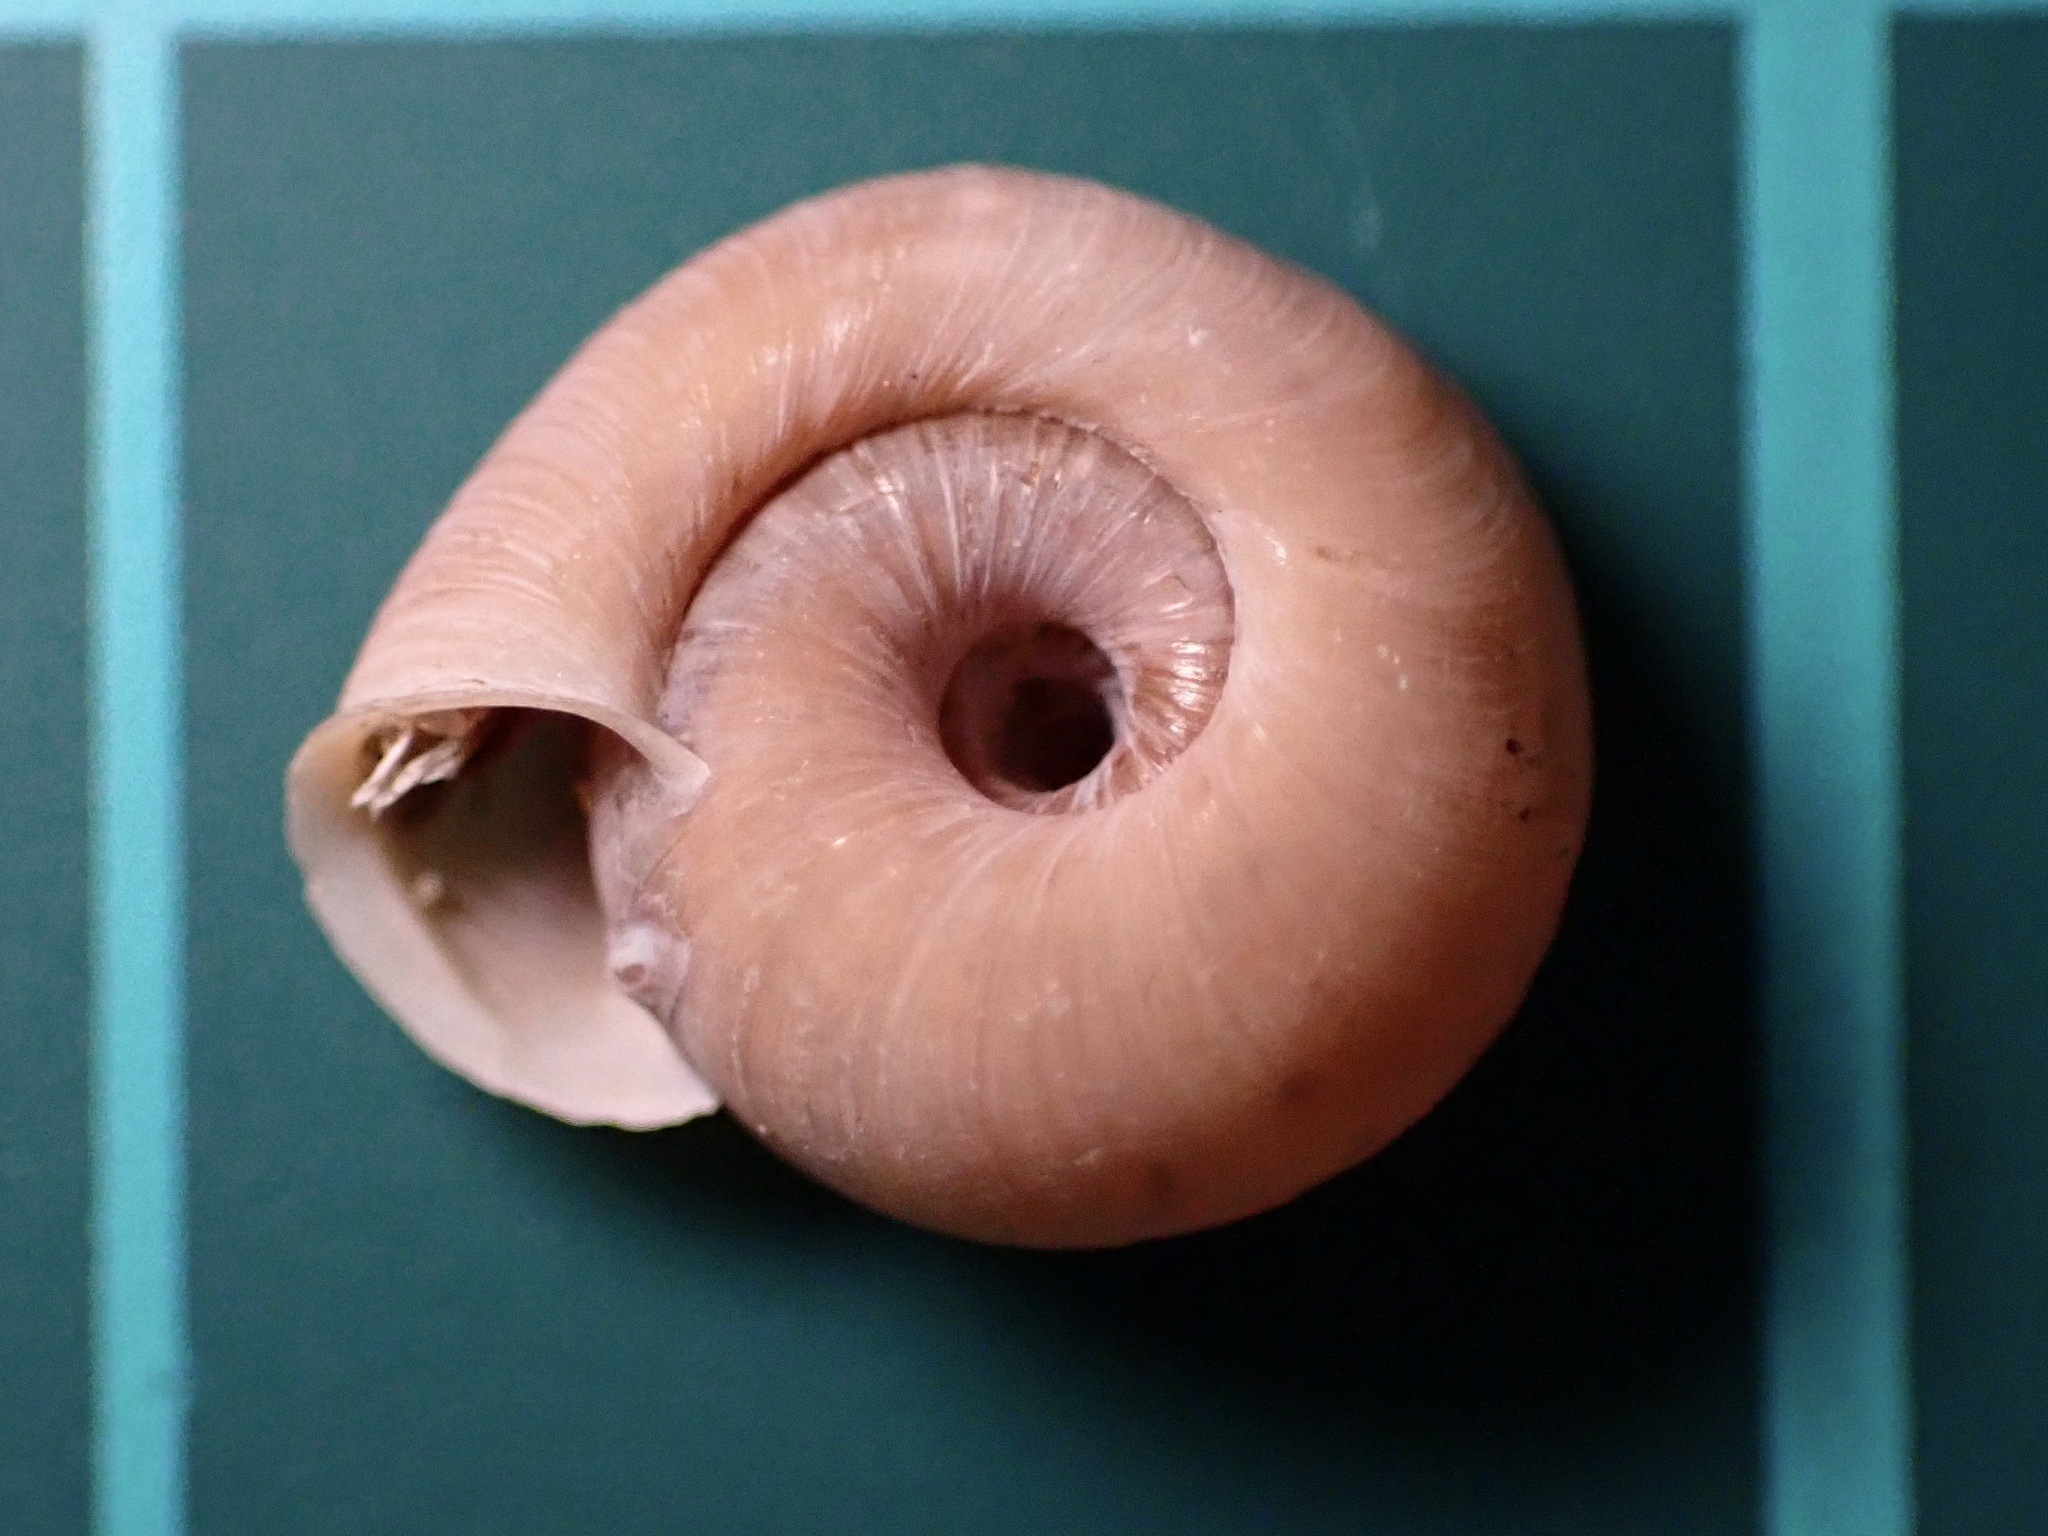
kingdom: Animalia
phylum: Mollusca
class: Gastropoda
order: Stylommatophora
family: Polygyridae
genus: Polygyra
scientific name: Polygyra cereolus
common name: Southern flatcone snail
